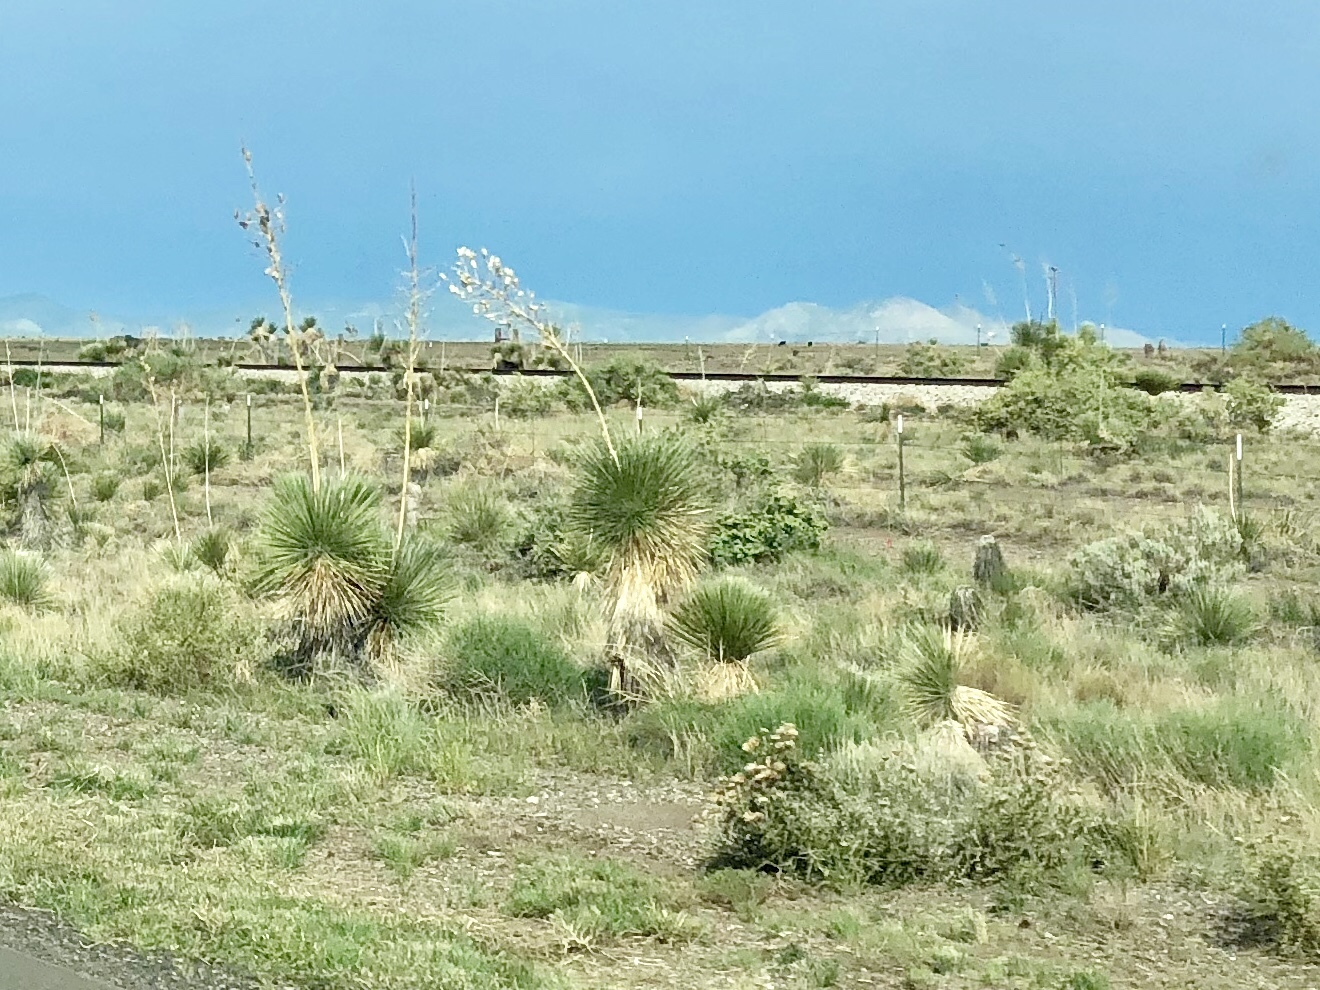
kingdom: Plantae
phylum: Tracheophyta
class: Liliopsida
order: Asparagales
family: Asparagaceae
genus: Yucca
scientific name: Yucca elata
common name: Palmella
